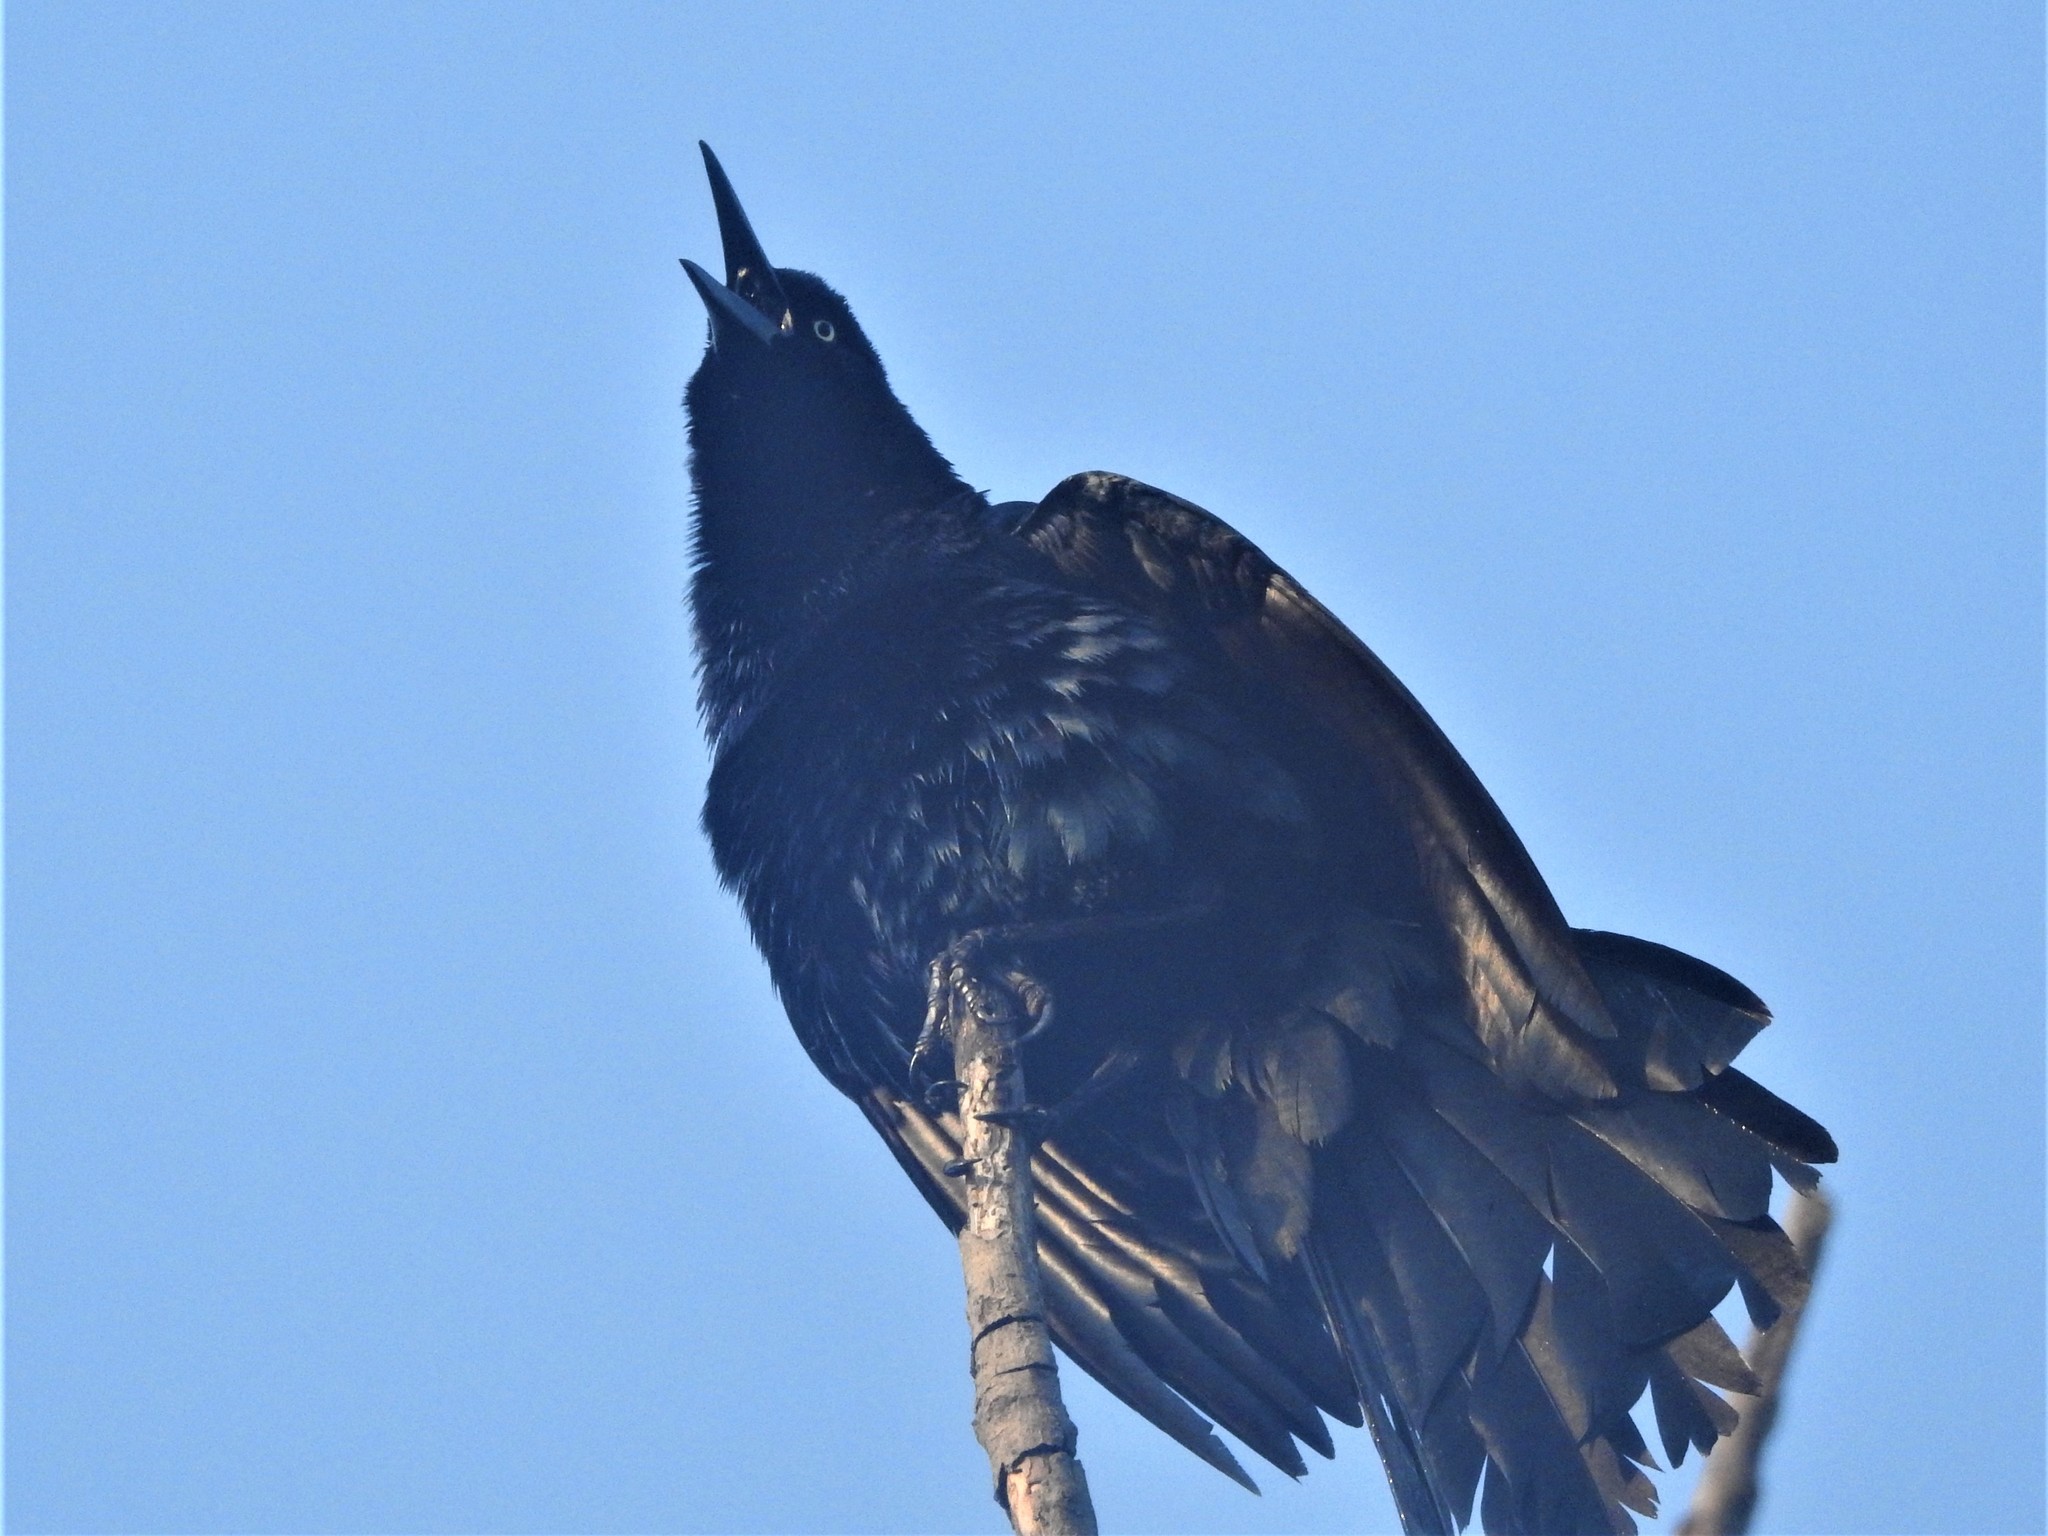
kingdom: Animalia
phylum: Chordata
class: Aves
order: Passeriformes
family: Icteridae
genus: Quiscalus
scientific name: Quiscalus mexicanus
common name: Great-tailed grackle
